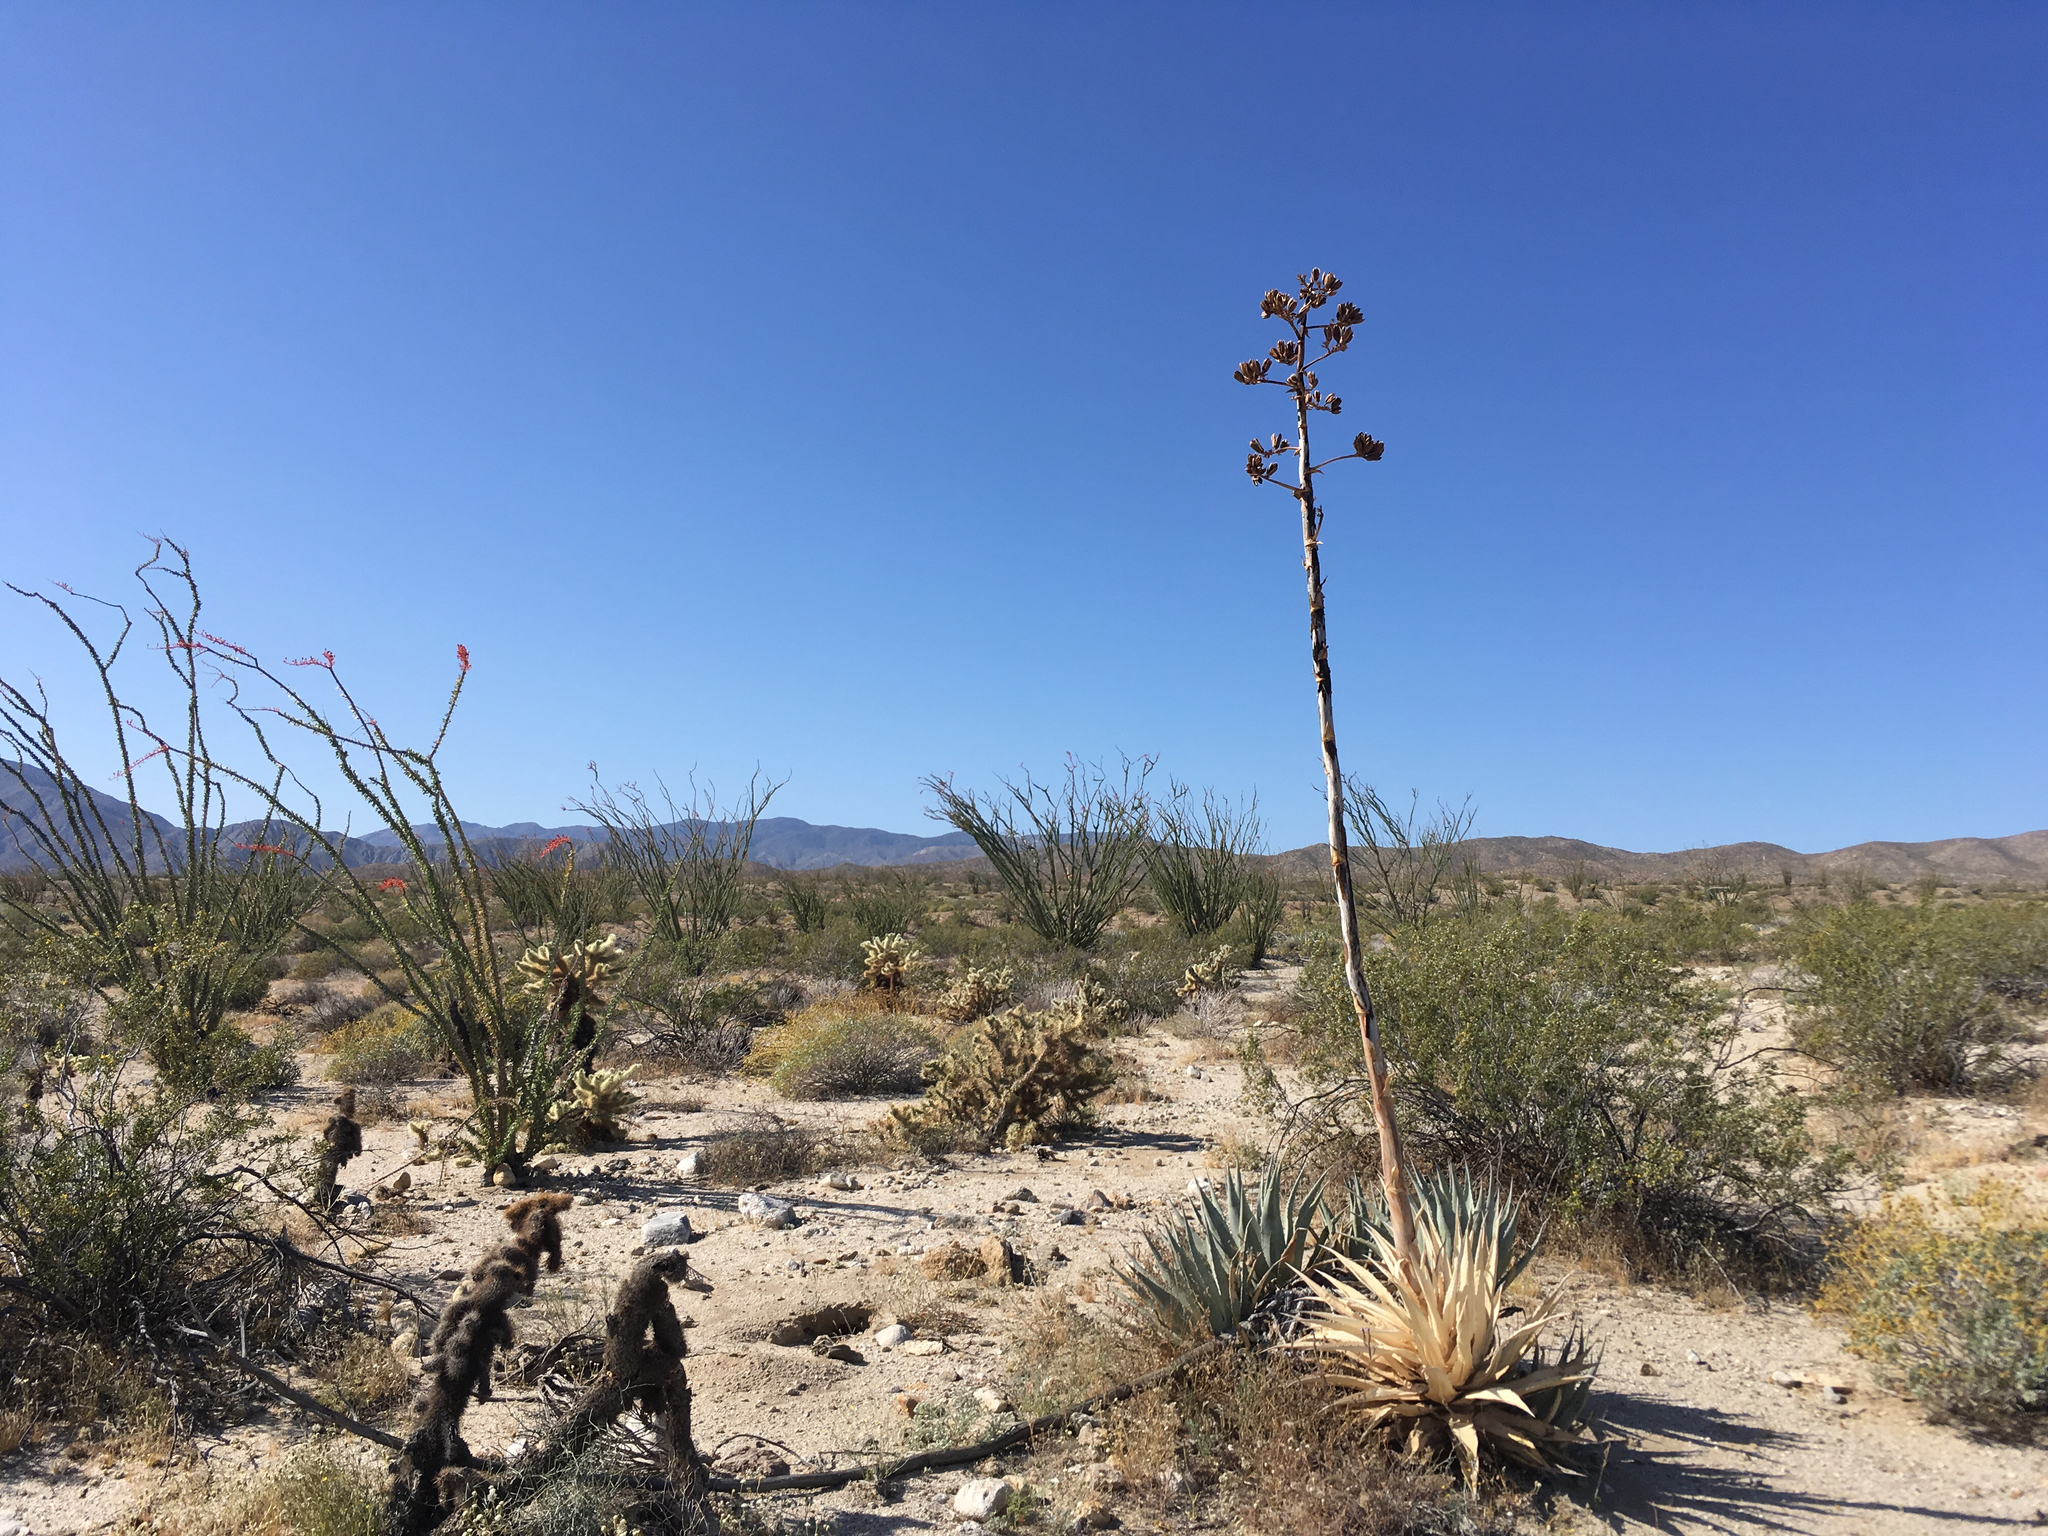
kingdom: Plantae
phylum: Tracheophyta
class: Liliopsida
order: Asparagales
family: Asparagaceae
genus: Agave
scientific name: Agave deserti
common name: Desert agave
